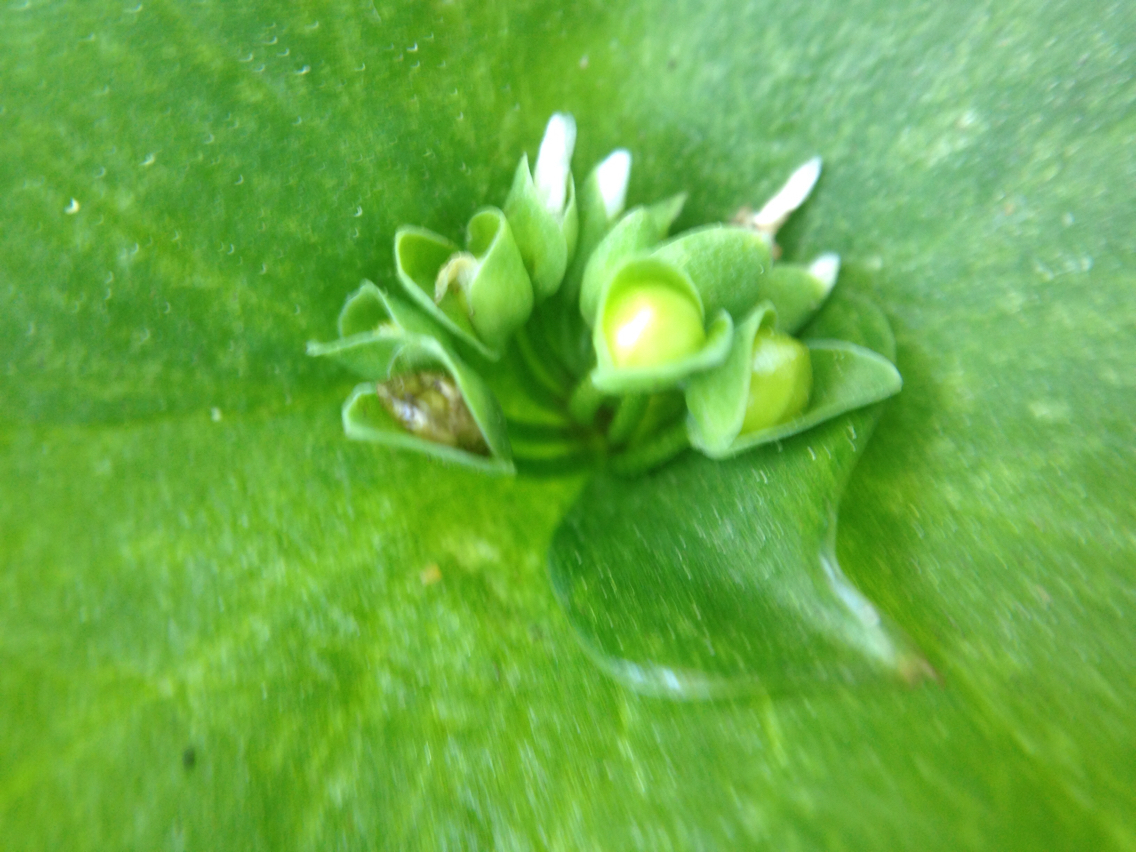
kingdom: Plantae
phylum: Tracheophyta
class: Magnoliopsida
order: Caryophyllales
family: Montiaceae
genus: Claytonia
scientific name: Claytonia perfoliata
